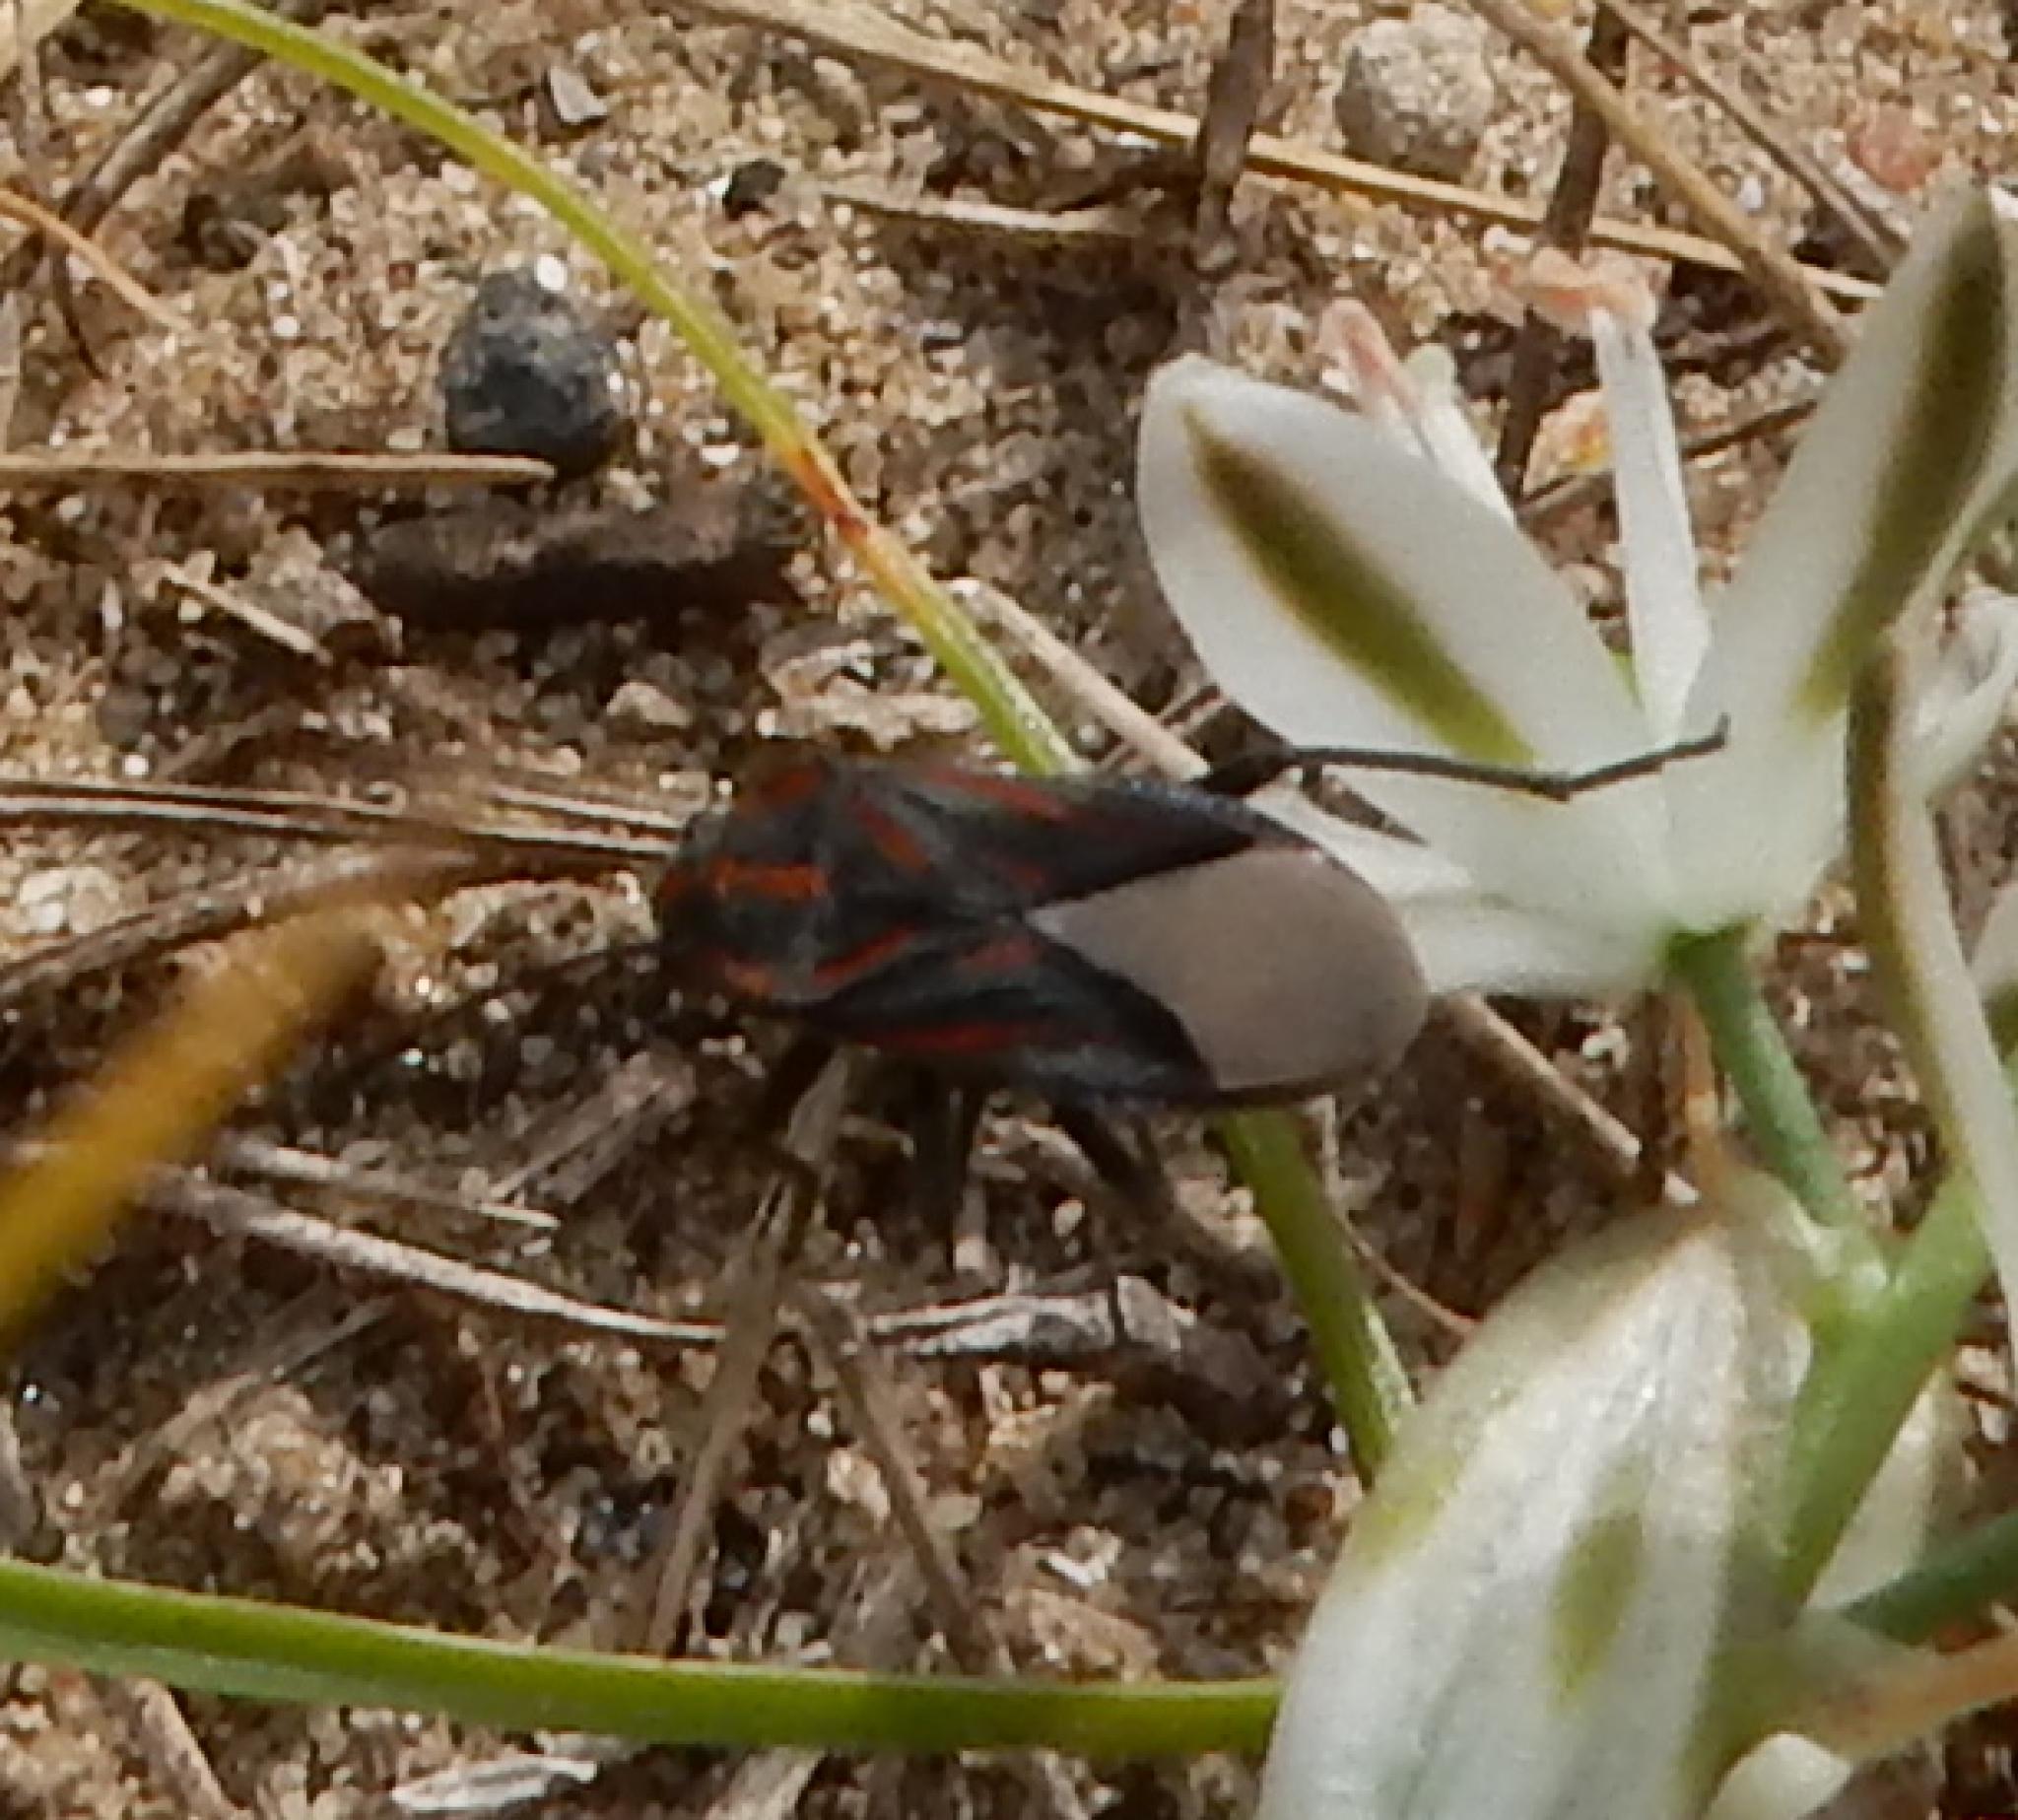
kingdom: Animalia
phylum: Arthropoda
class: Insecta
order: Hemiptera
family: Lygaeidae
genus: Spilostethus
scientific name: Spilostethus trilineatus
